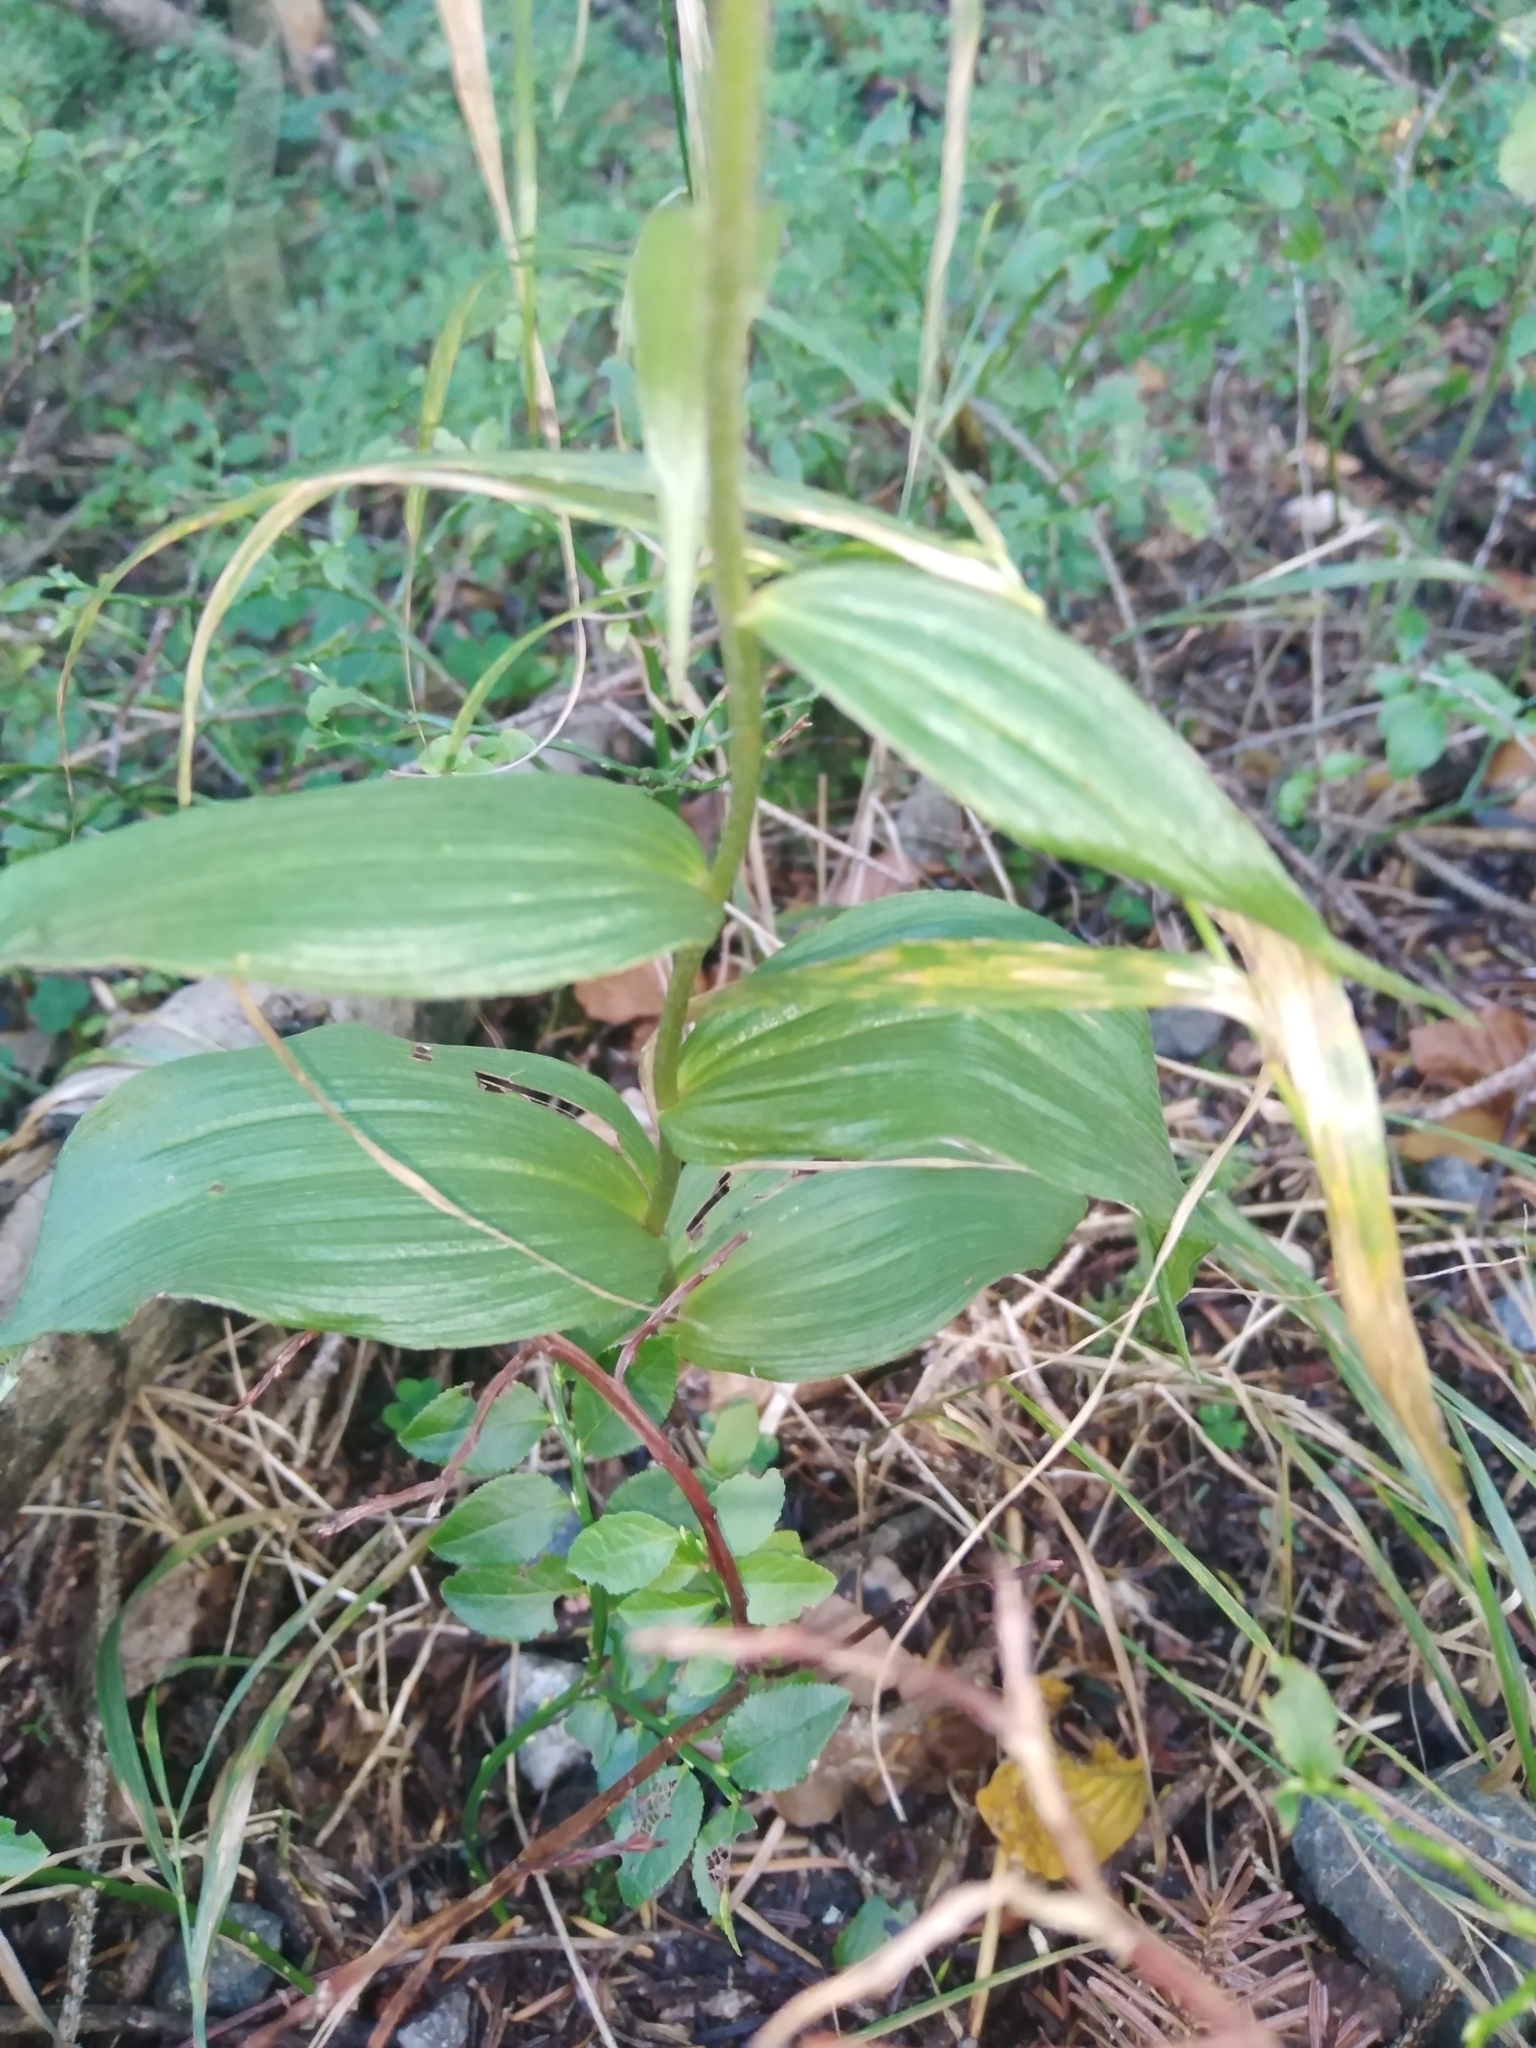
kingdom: Plantae
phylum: Tracheophyta
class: Liliopsida
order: Asparagales
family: Orchidaceae
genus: Epipactis
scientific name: Epipactis helleborine
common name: Broad-leaved helleborine
